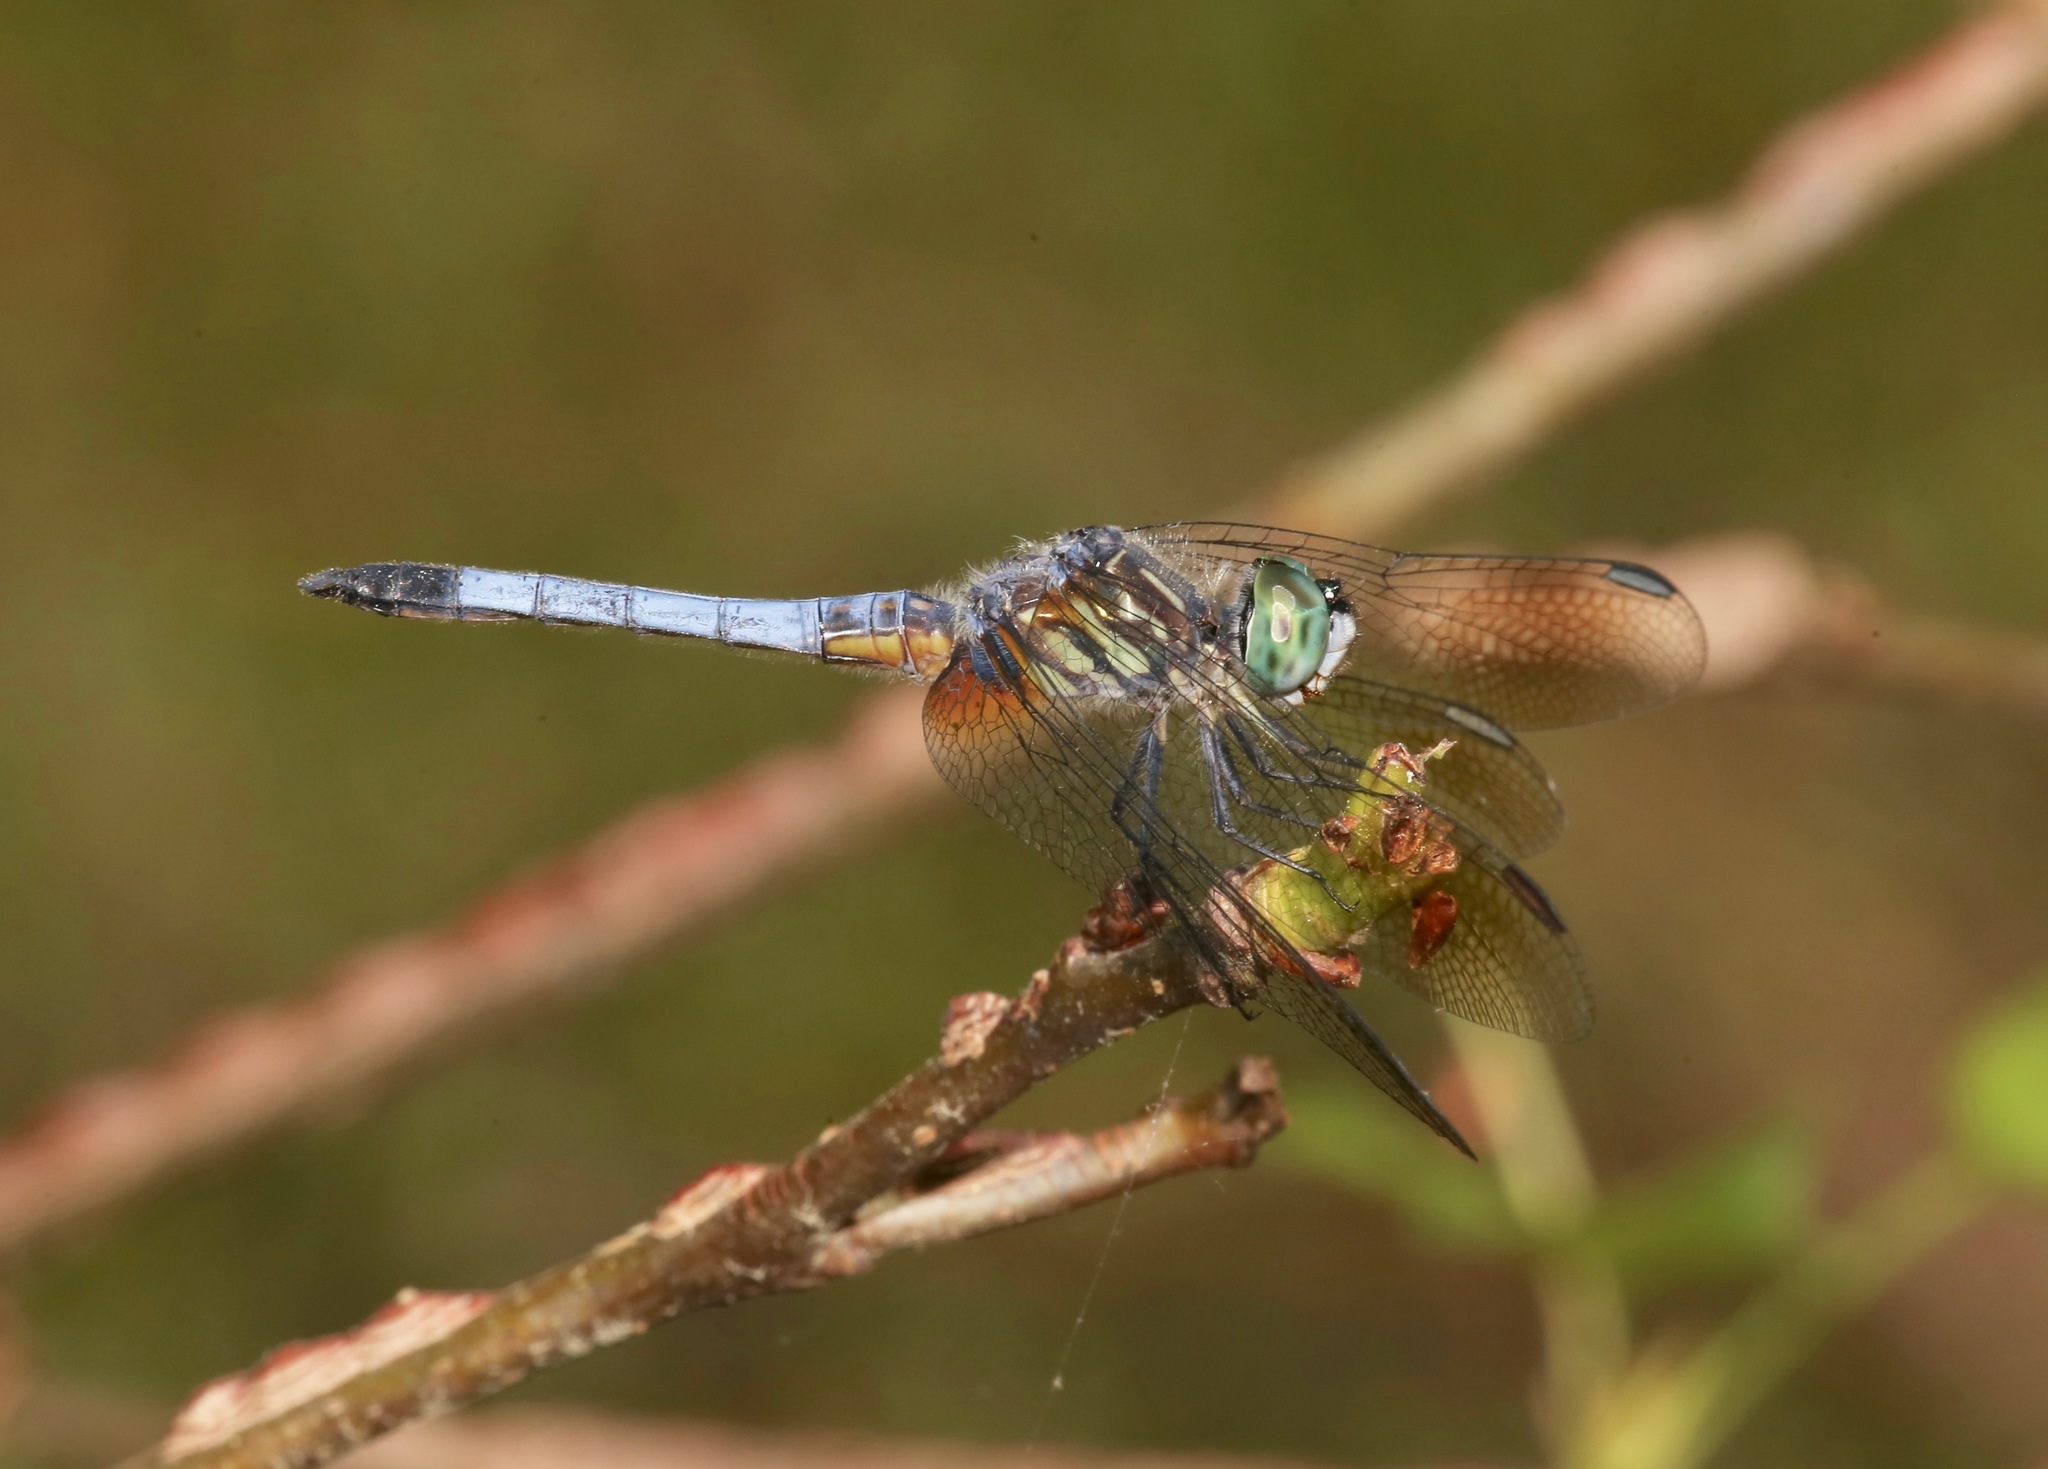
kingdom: Animalia
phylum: Arthropoda
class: Insecta
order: Odonata
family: Libellulidae
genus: Pachydiplax
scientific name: Pachydiplax longipennis
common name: Blue dasher
